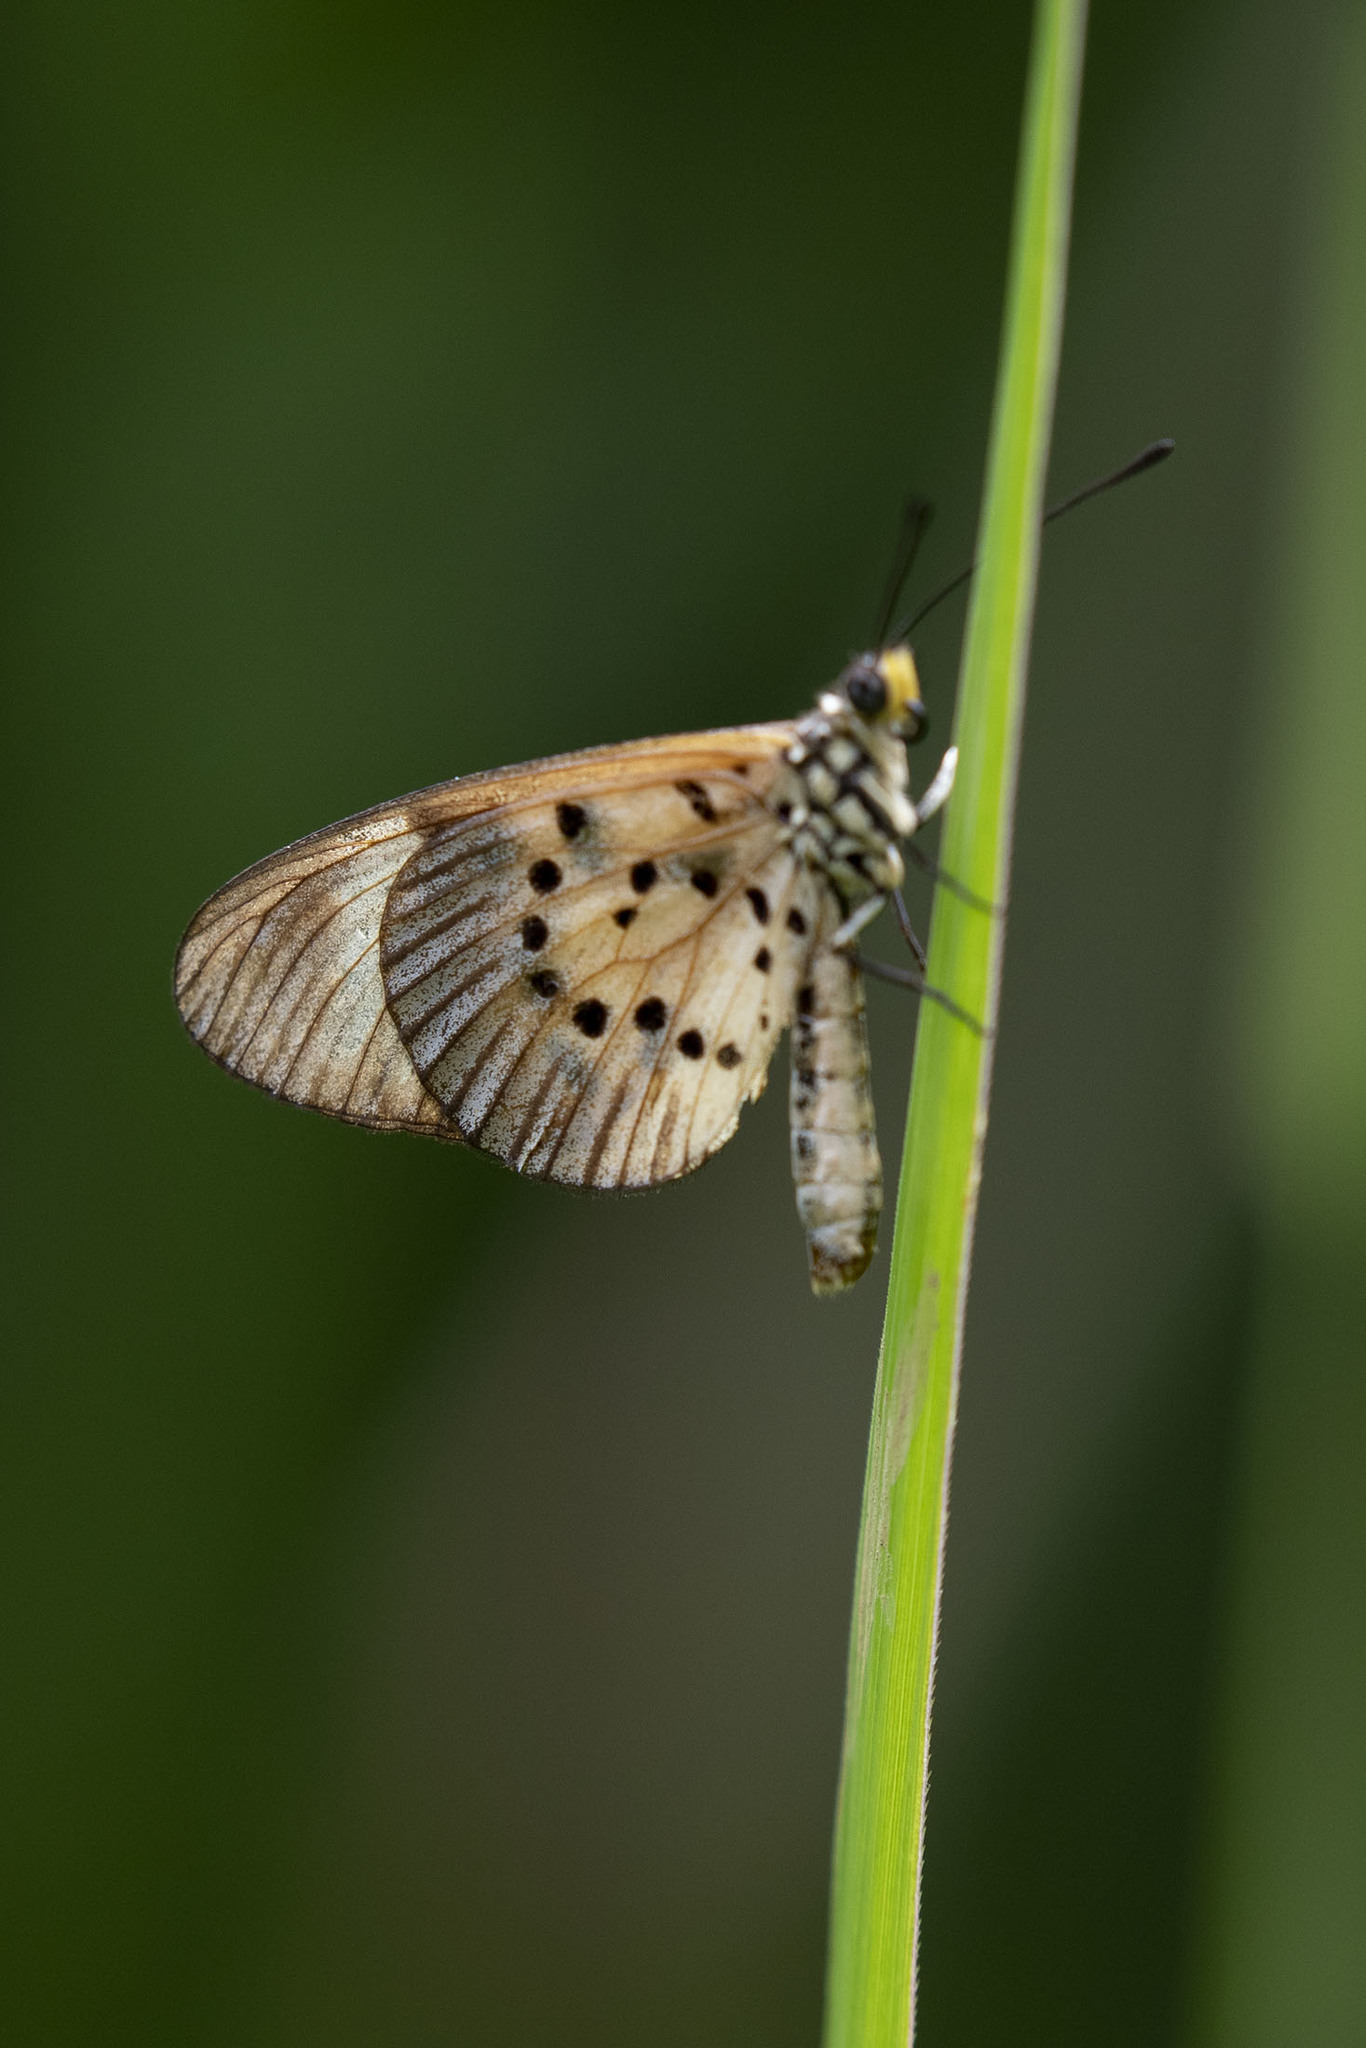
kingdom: Animalia
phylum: Arthropoda
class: Insecta
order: Lepidoptera
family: Nymphalidae
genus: Acraea
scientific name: Acraea Telchinia encedon
